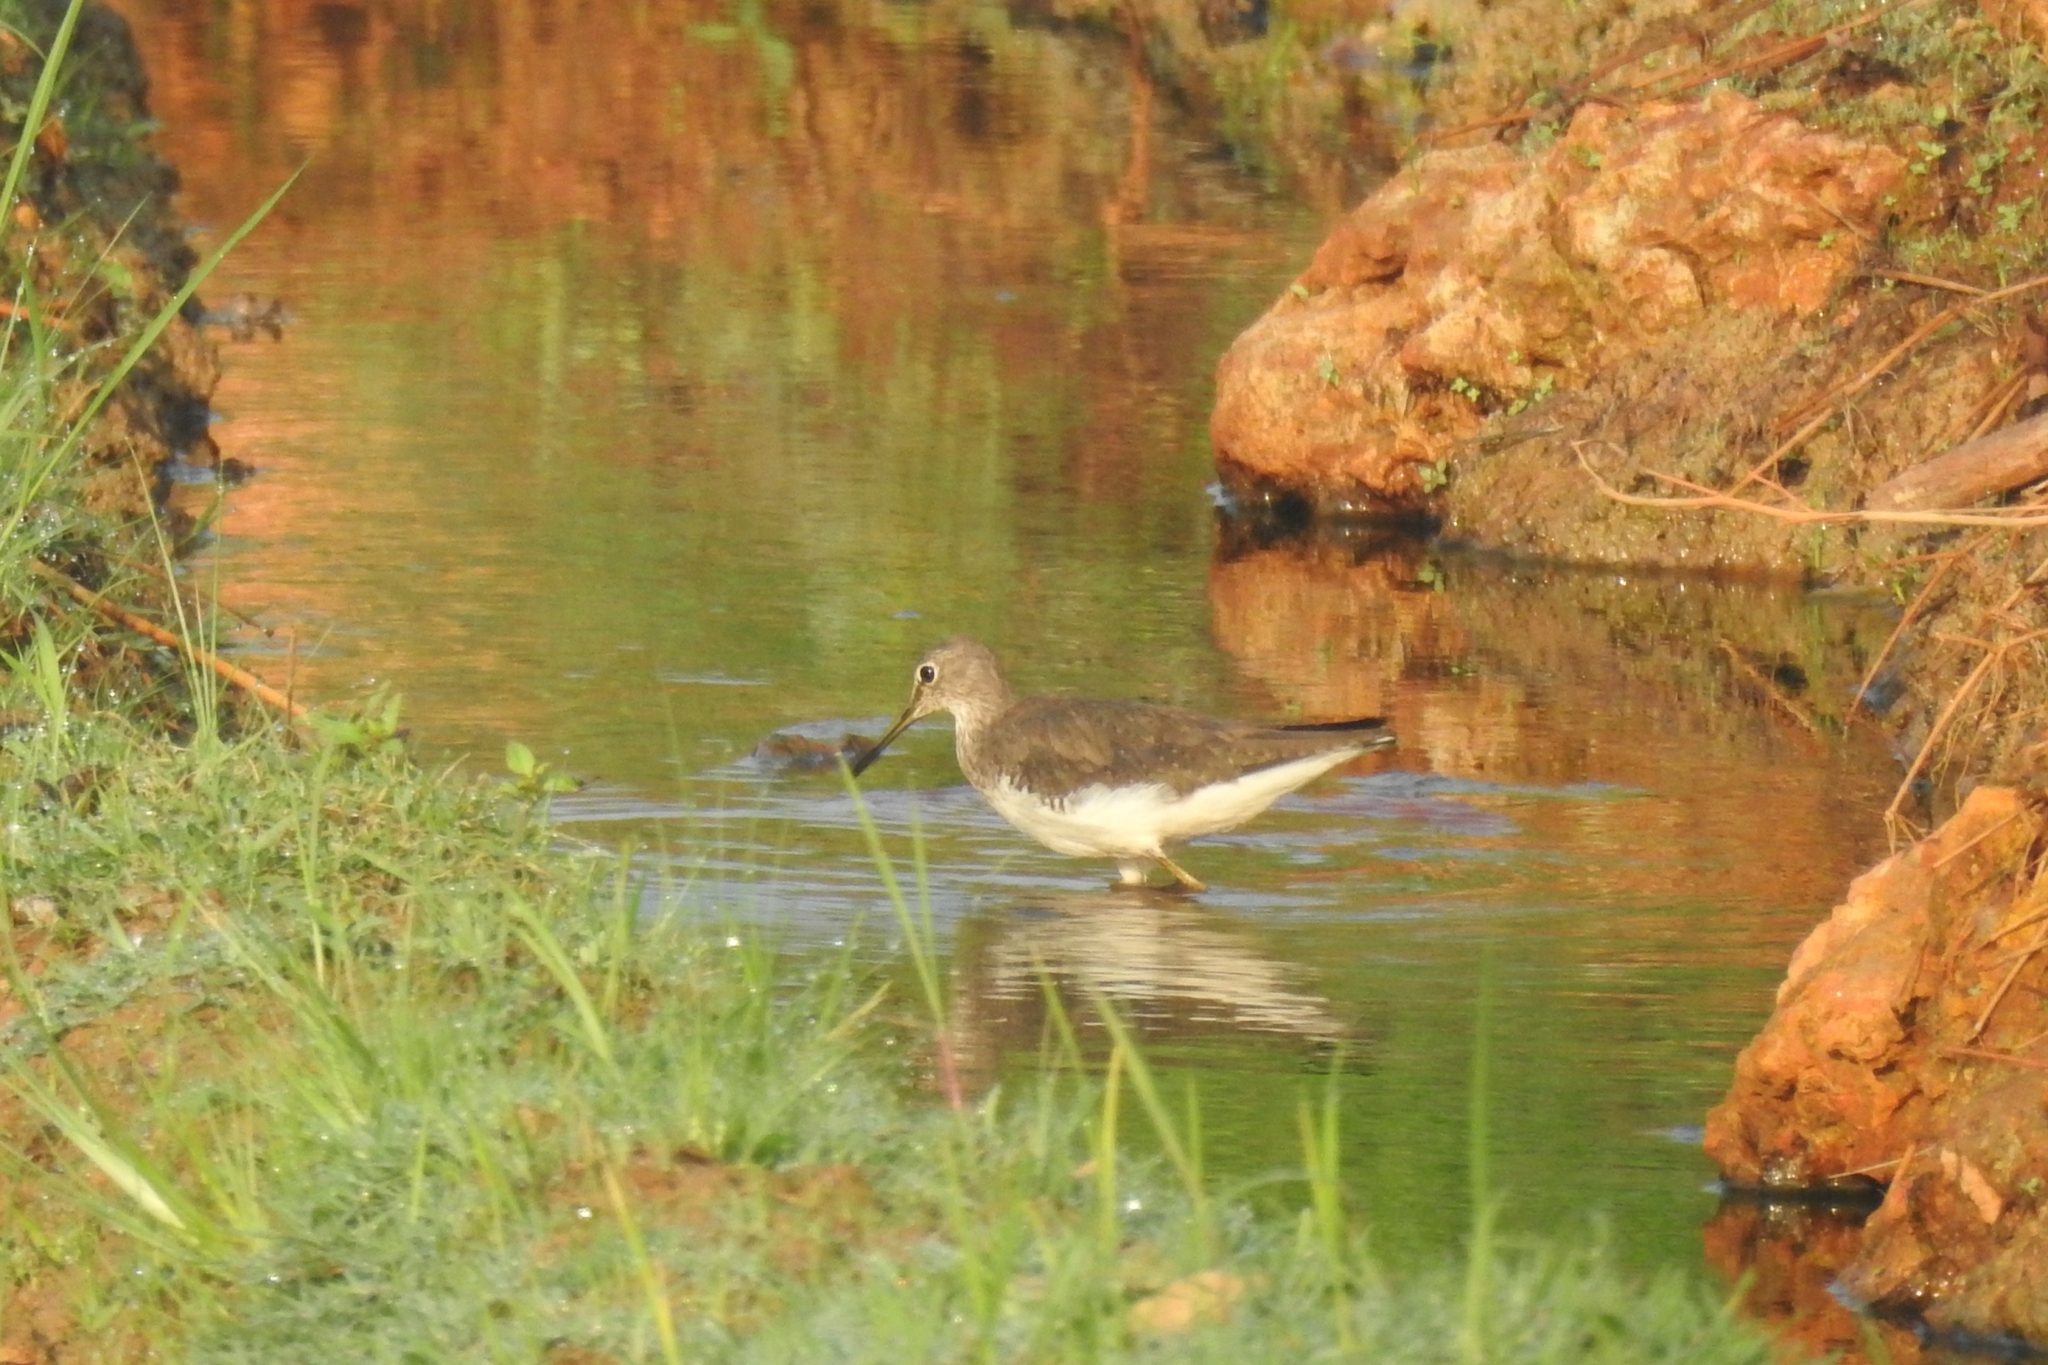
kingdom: Animalia
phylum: Chordata
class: Aves
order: Charadriiformes
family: Scolopacidae
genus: Tringa
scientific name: Tringa ochropus
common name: Green sandpiper
